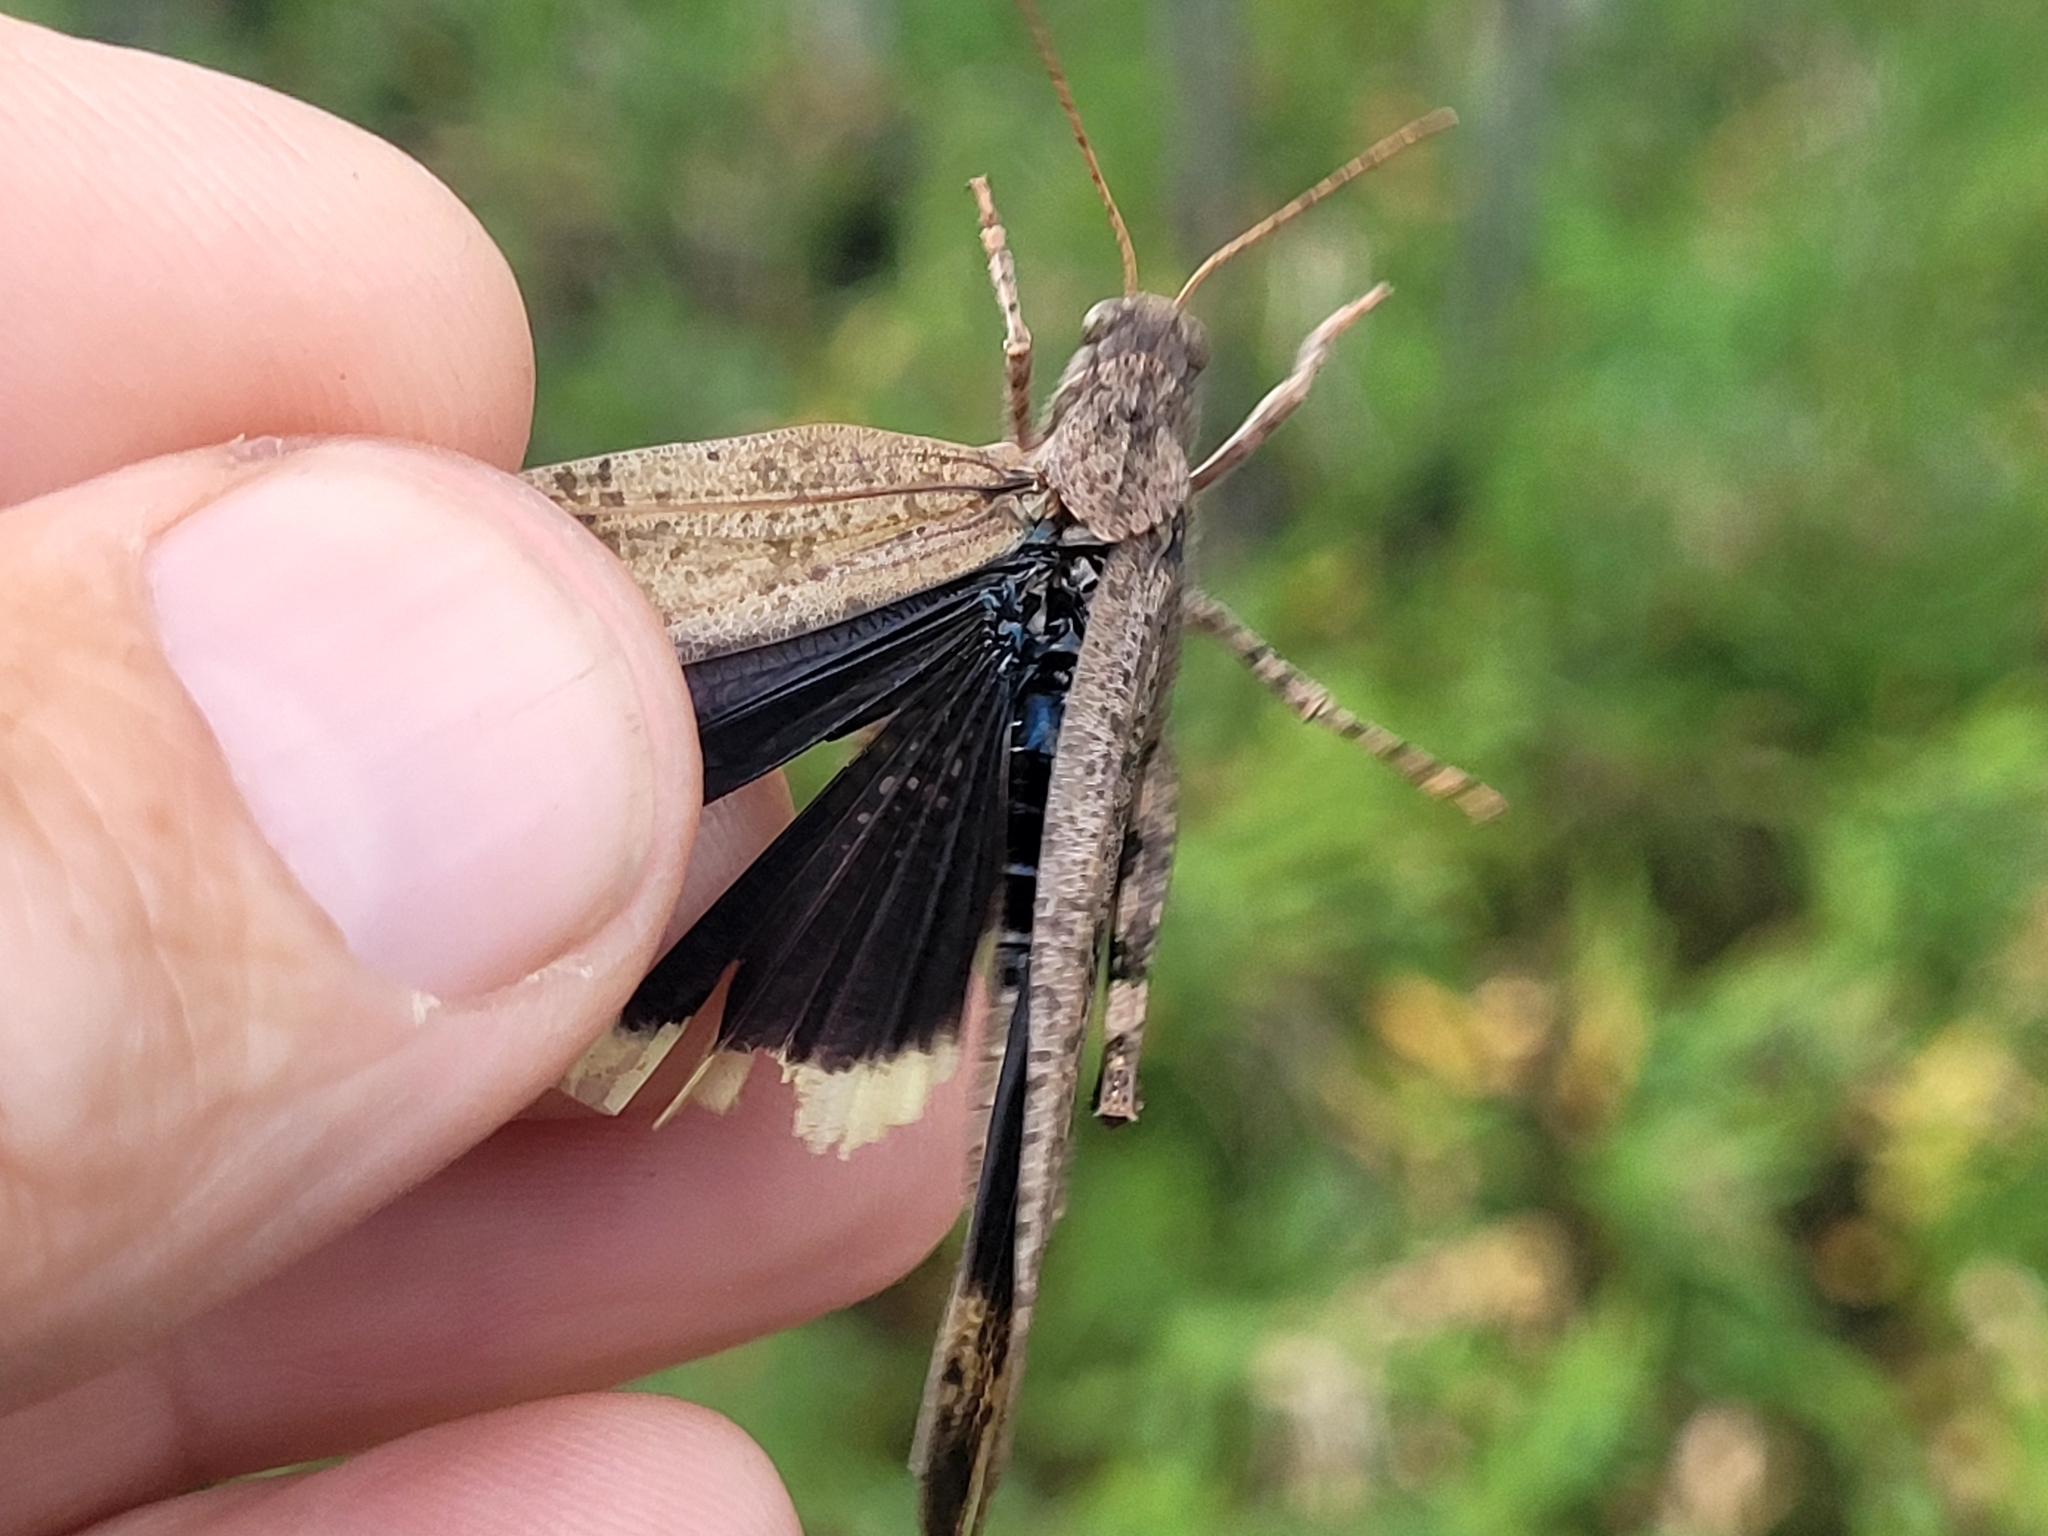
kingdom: Animalia
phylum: Arthropoda
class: Insecta
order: Orthoptera
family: Acrididae
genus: Dissosteira
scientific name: Dissosteira carolina
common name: Carolina grasshopper
